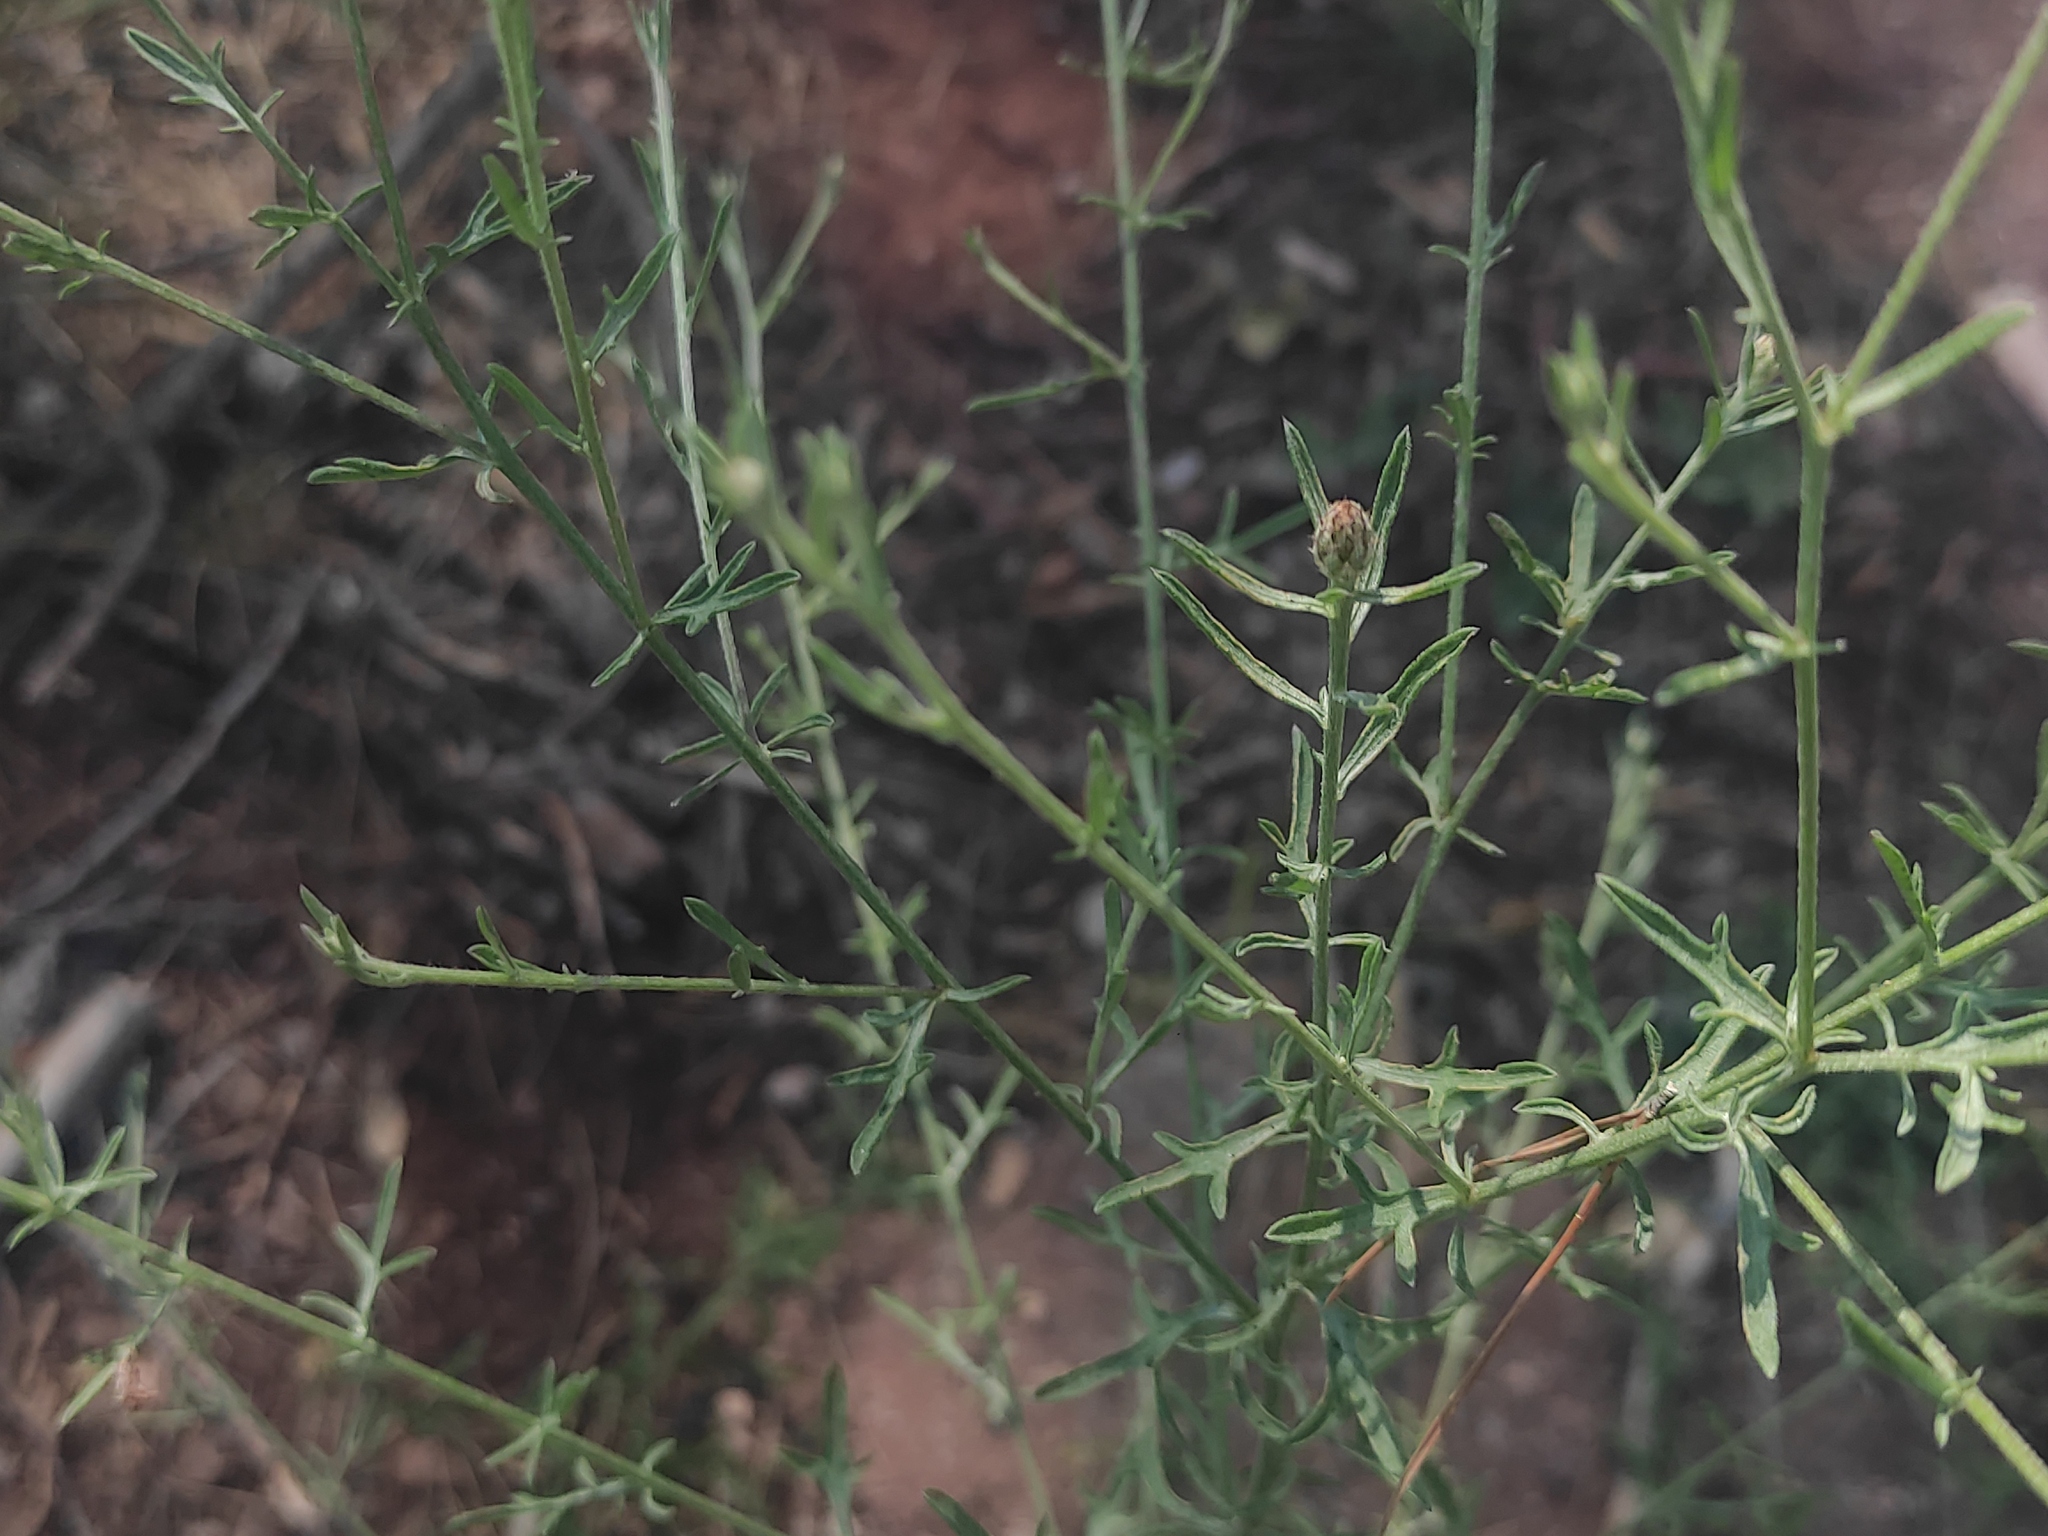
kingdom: Plantae
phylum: Tracheophyta
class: Magnoliopsida
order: Asterales
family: Asteraceae
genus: Centaurea
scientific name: Centaurea paniculata
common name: Jersey knapweed
